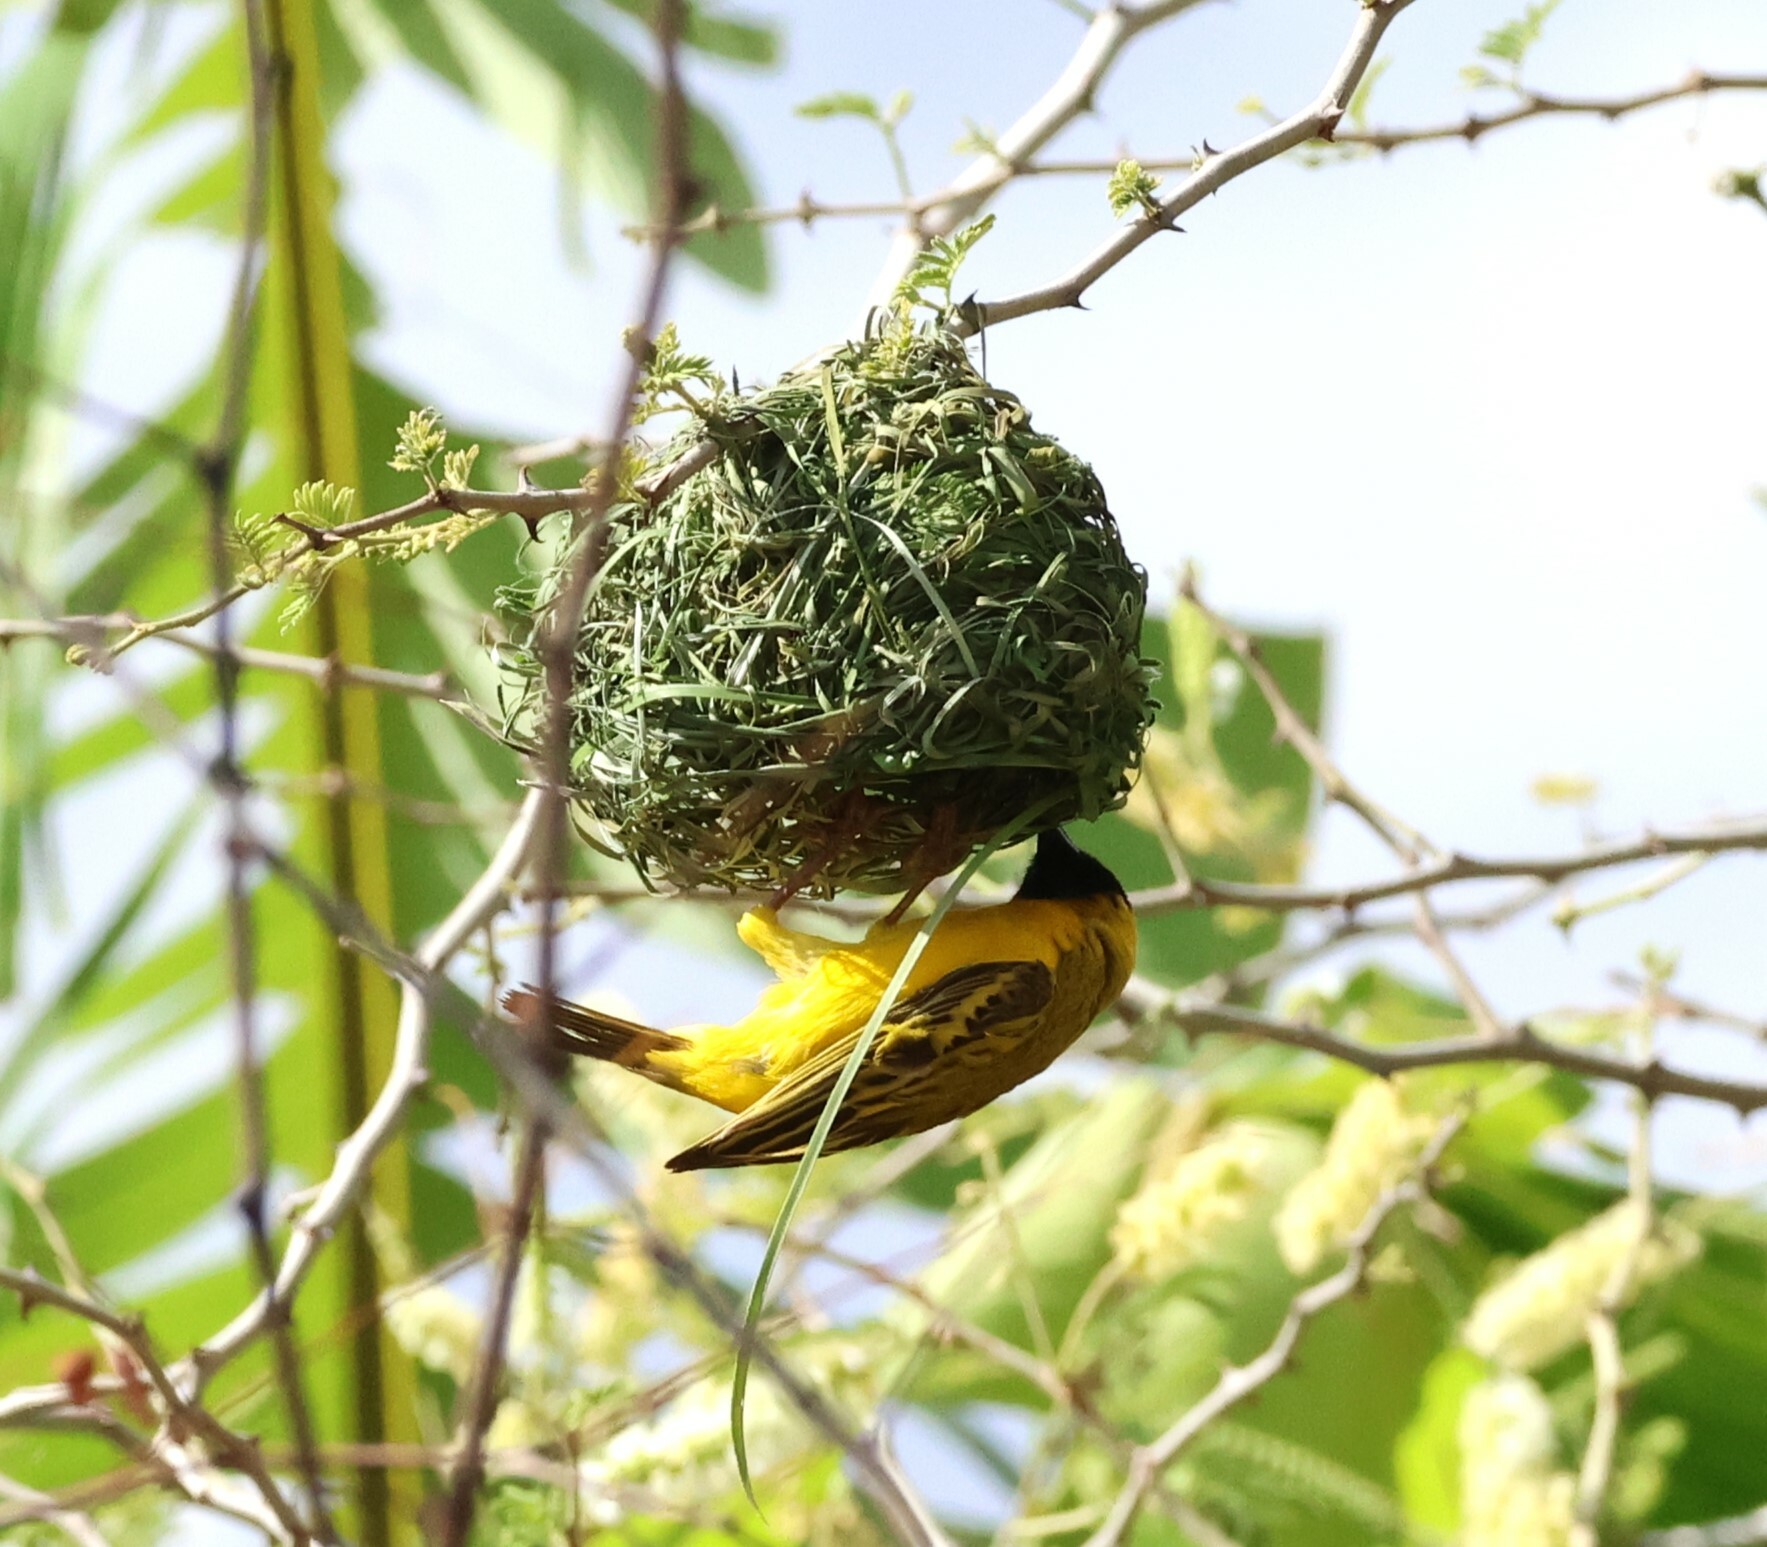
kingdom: Animalia
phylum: Chordata
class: Aves
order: Passeriformes
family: Ploceidae
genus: Ploceus
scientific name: Ploceus velatus
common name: Southern masked weaver
